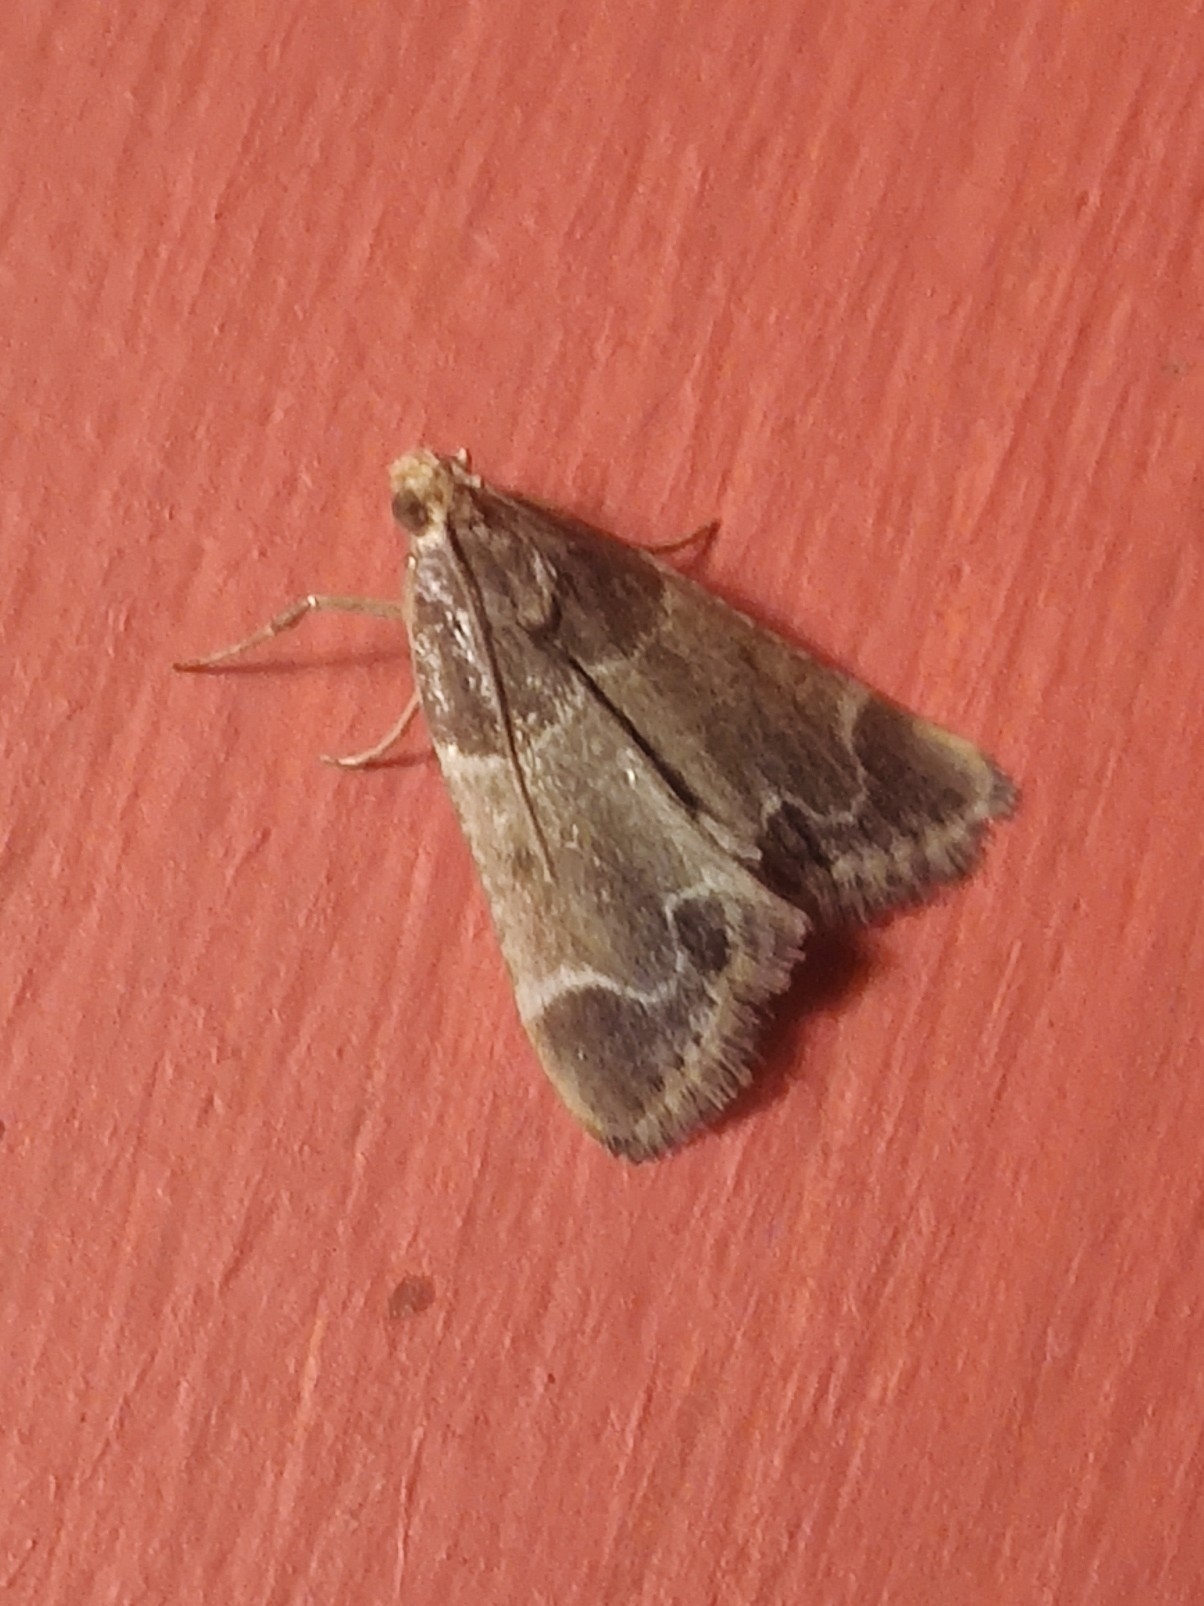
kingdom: Animalia
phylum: Arthropoda
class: Insecta
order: Lepidoptera
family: Pyralidae
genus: Pyralis
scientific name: Pyralis farinalis
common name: Meal moth
